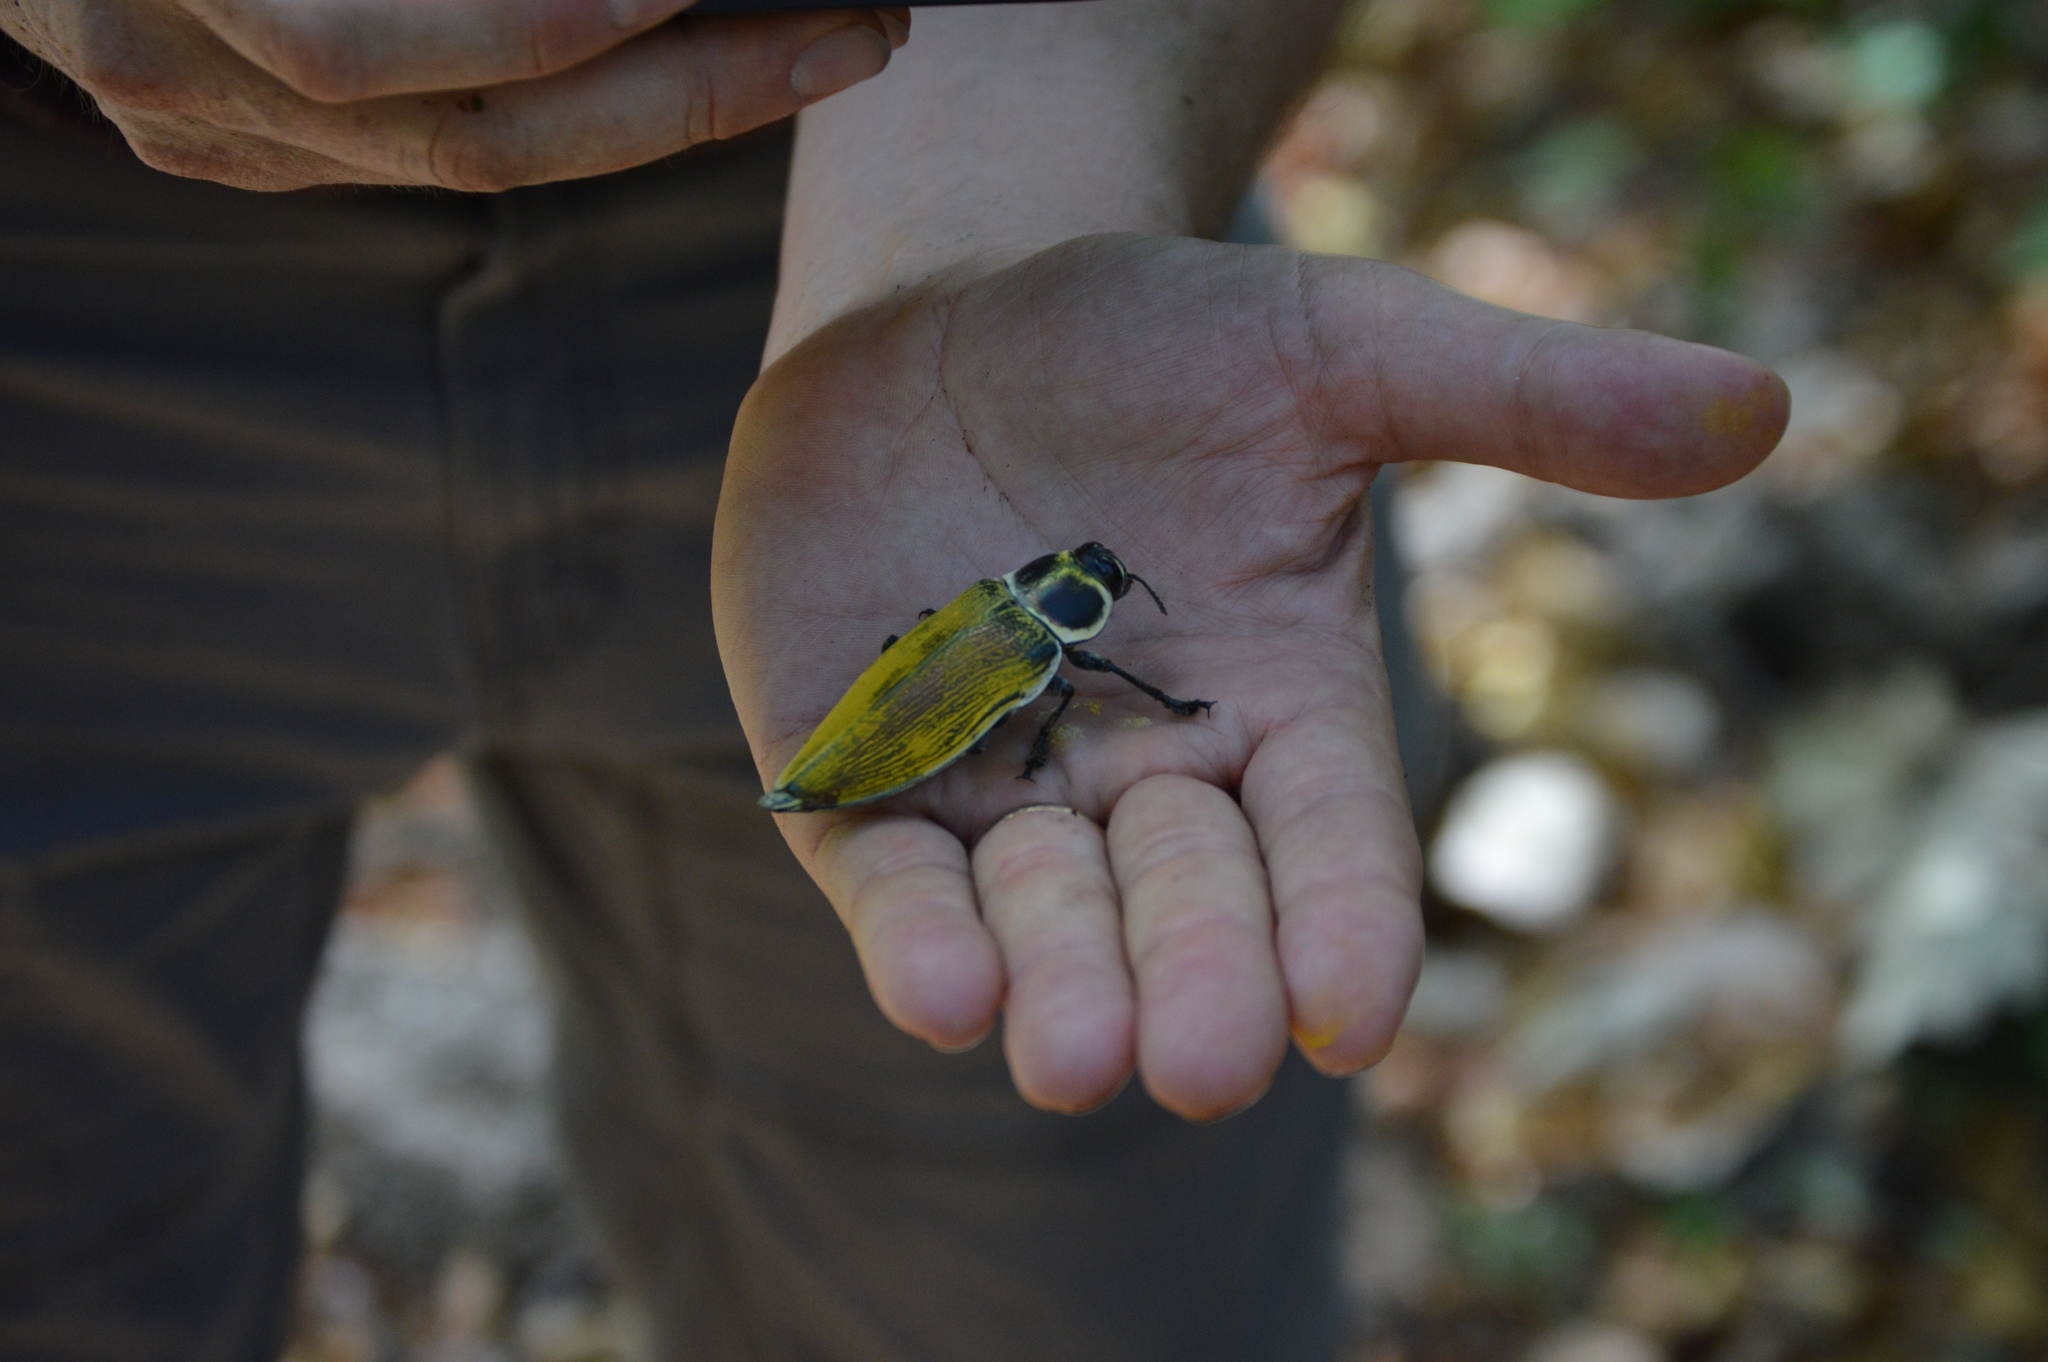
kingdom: Animalia
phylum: Arthropoda
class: Insecta
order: Coleoptera
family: Buprestidae
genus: Euchroma
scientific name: Euchroma giganteum
